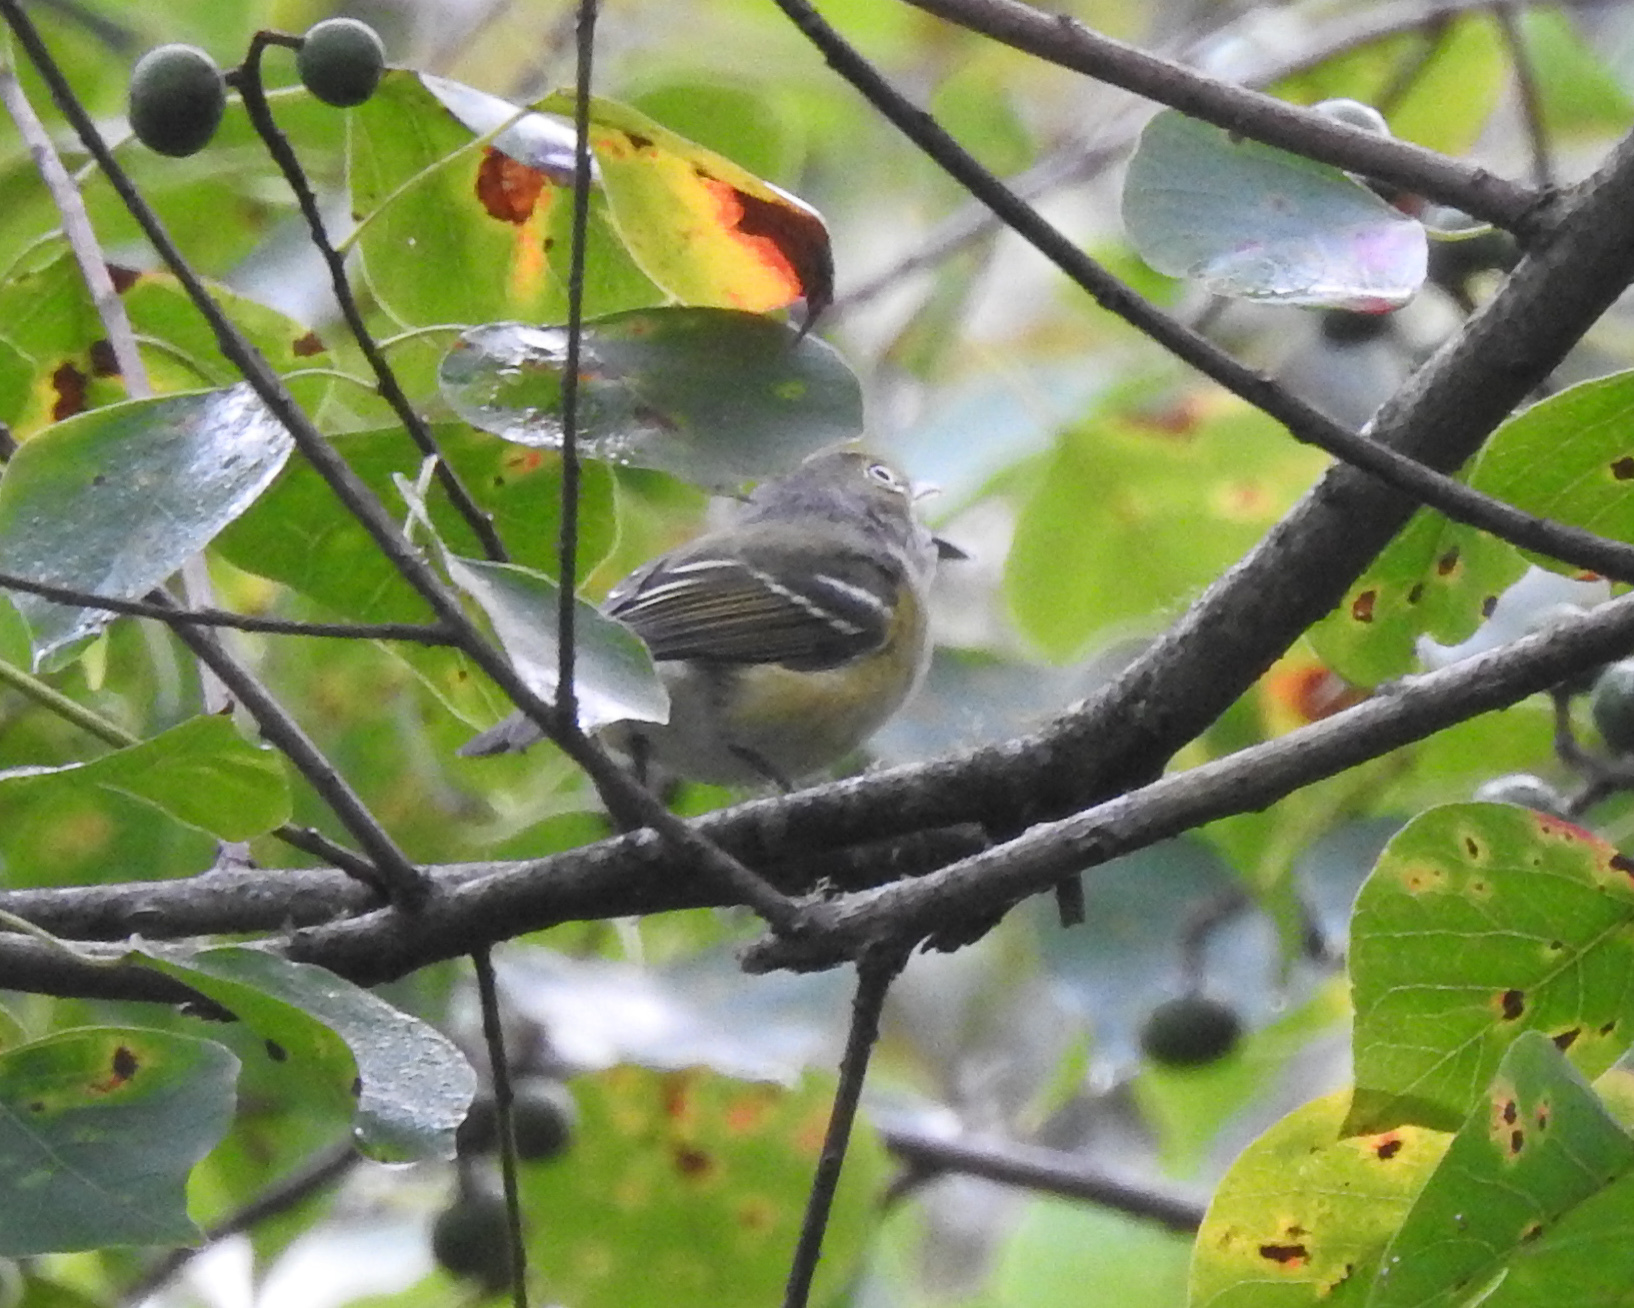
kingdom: Animalia
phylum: Chordata
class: Aves
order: Passeriformes
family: Vireonidae
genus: Vireo
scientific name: Vireo griseus
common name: White-eyed vireo
